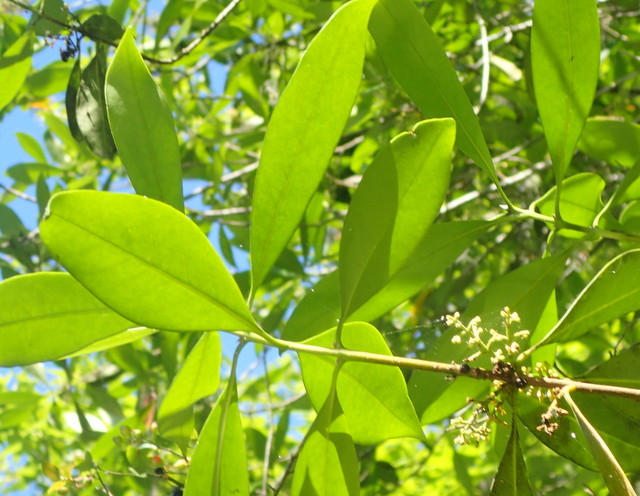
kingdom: Plantae
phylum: Tracheophyta
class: Magnoliopsida
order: Lamiales
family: Oleaceae
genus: Cartrema
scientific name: Cartrema americana
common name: Devilwood
